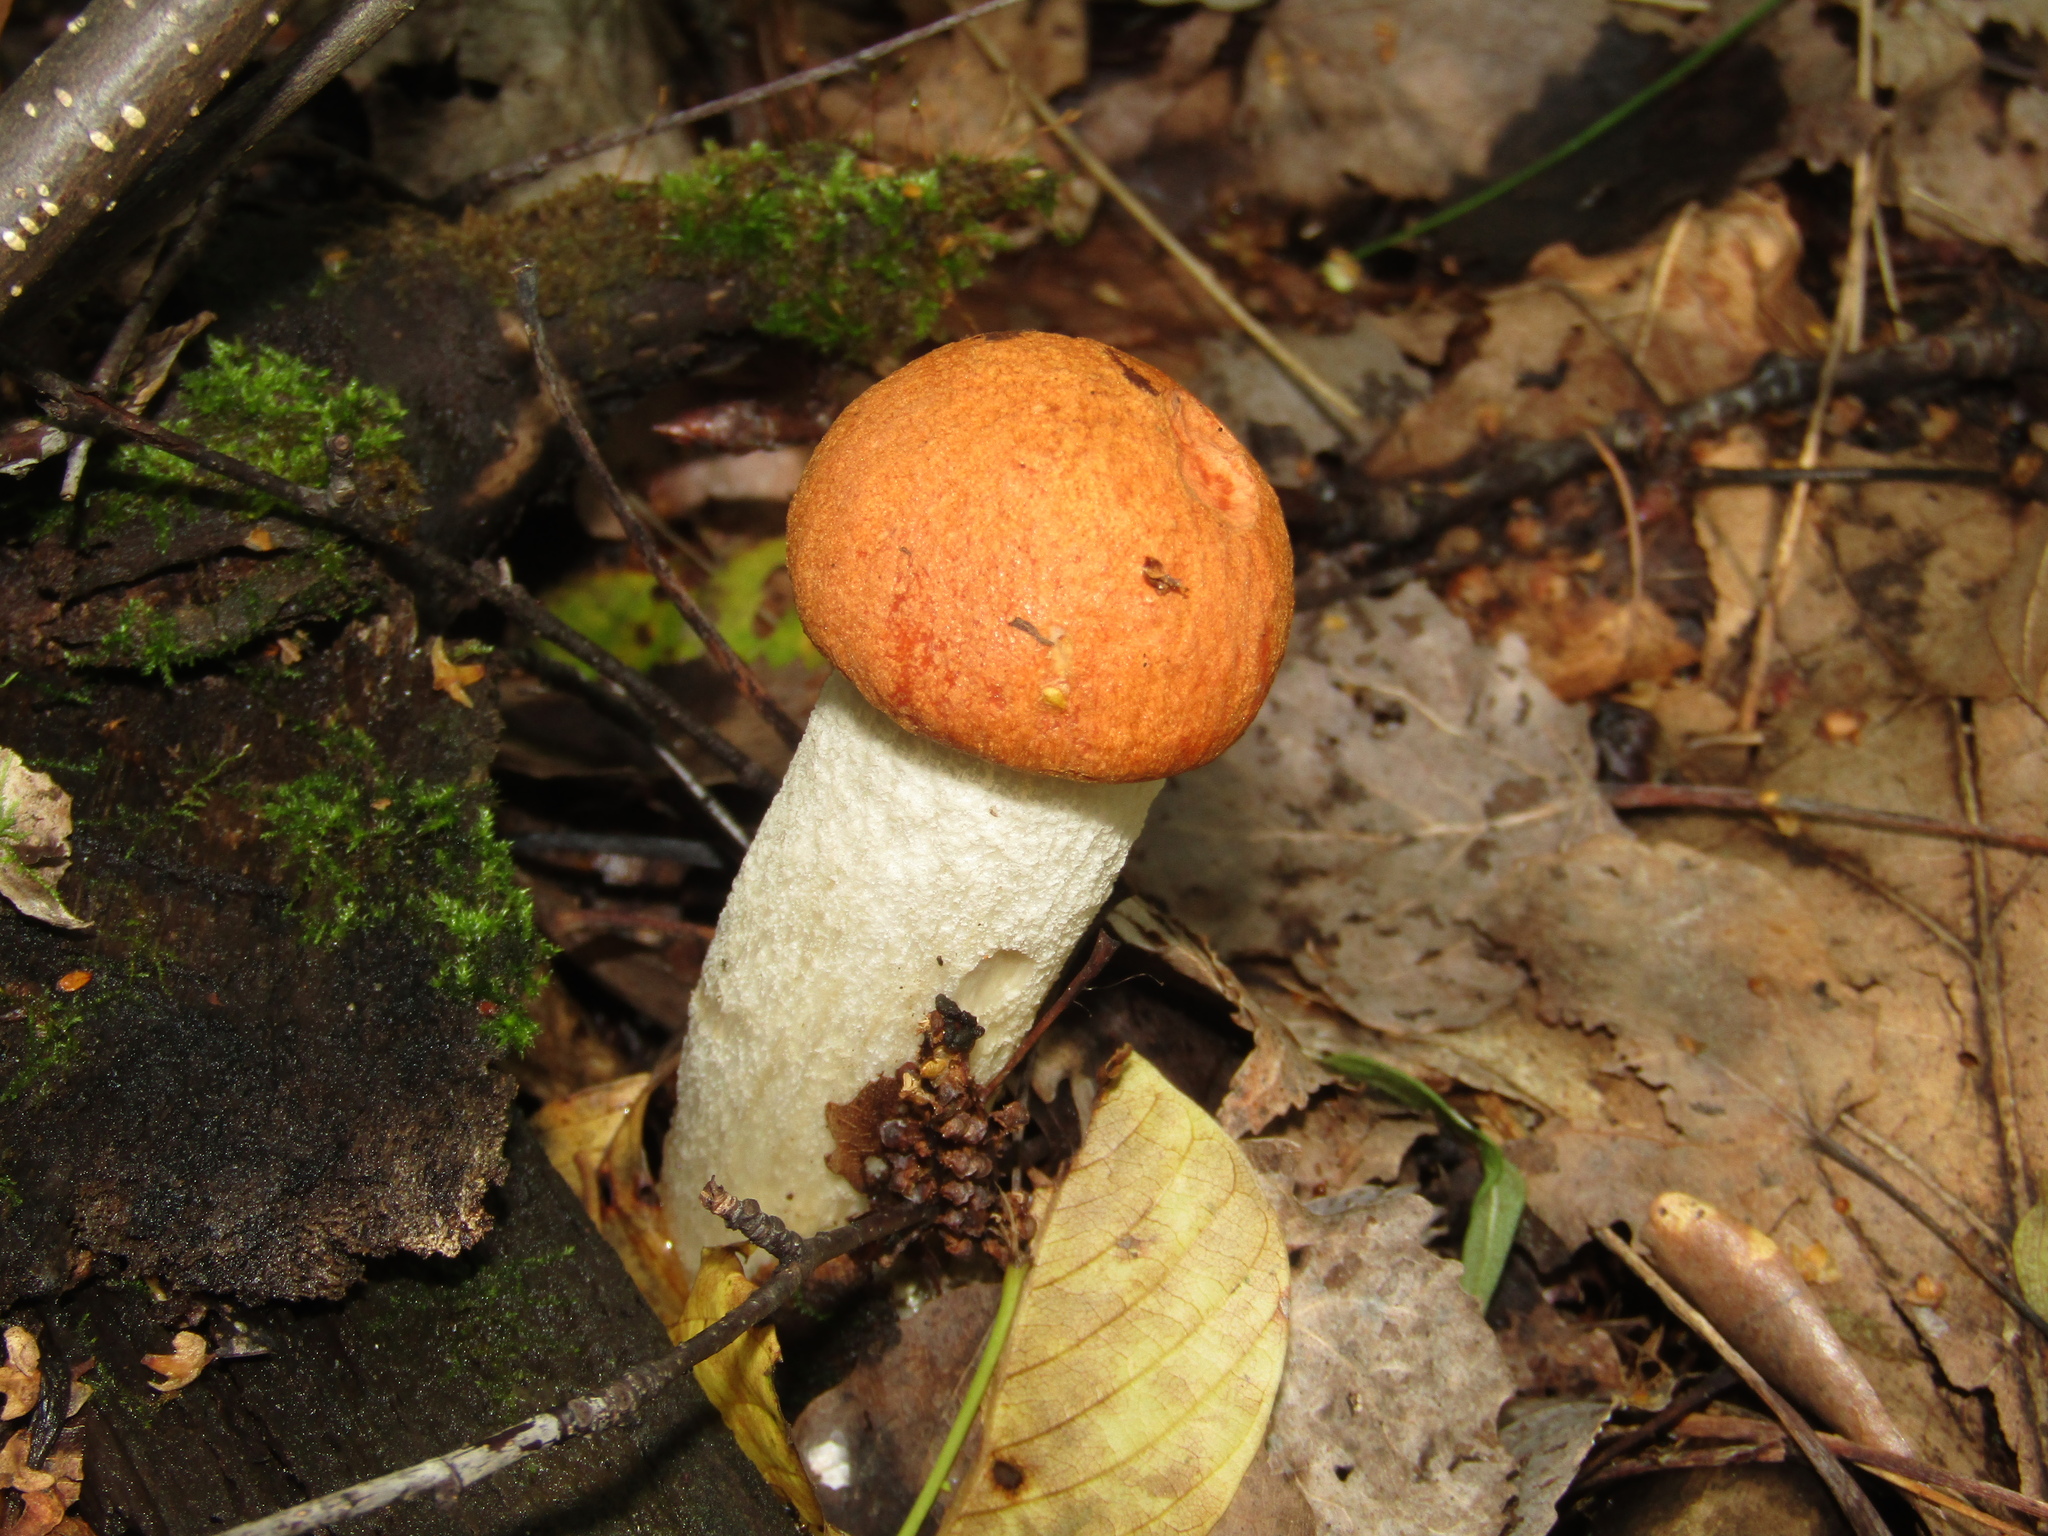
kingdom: Fungi
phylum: Basidiomycota
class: Agaricomycetes
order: Boletales
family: Boletaceae
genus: Leccinum
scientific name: Leccinum albostipitatum
